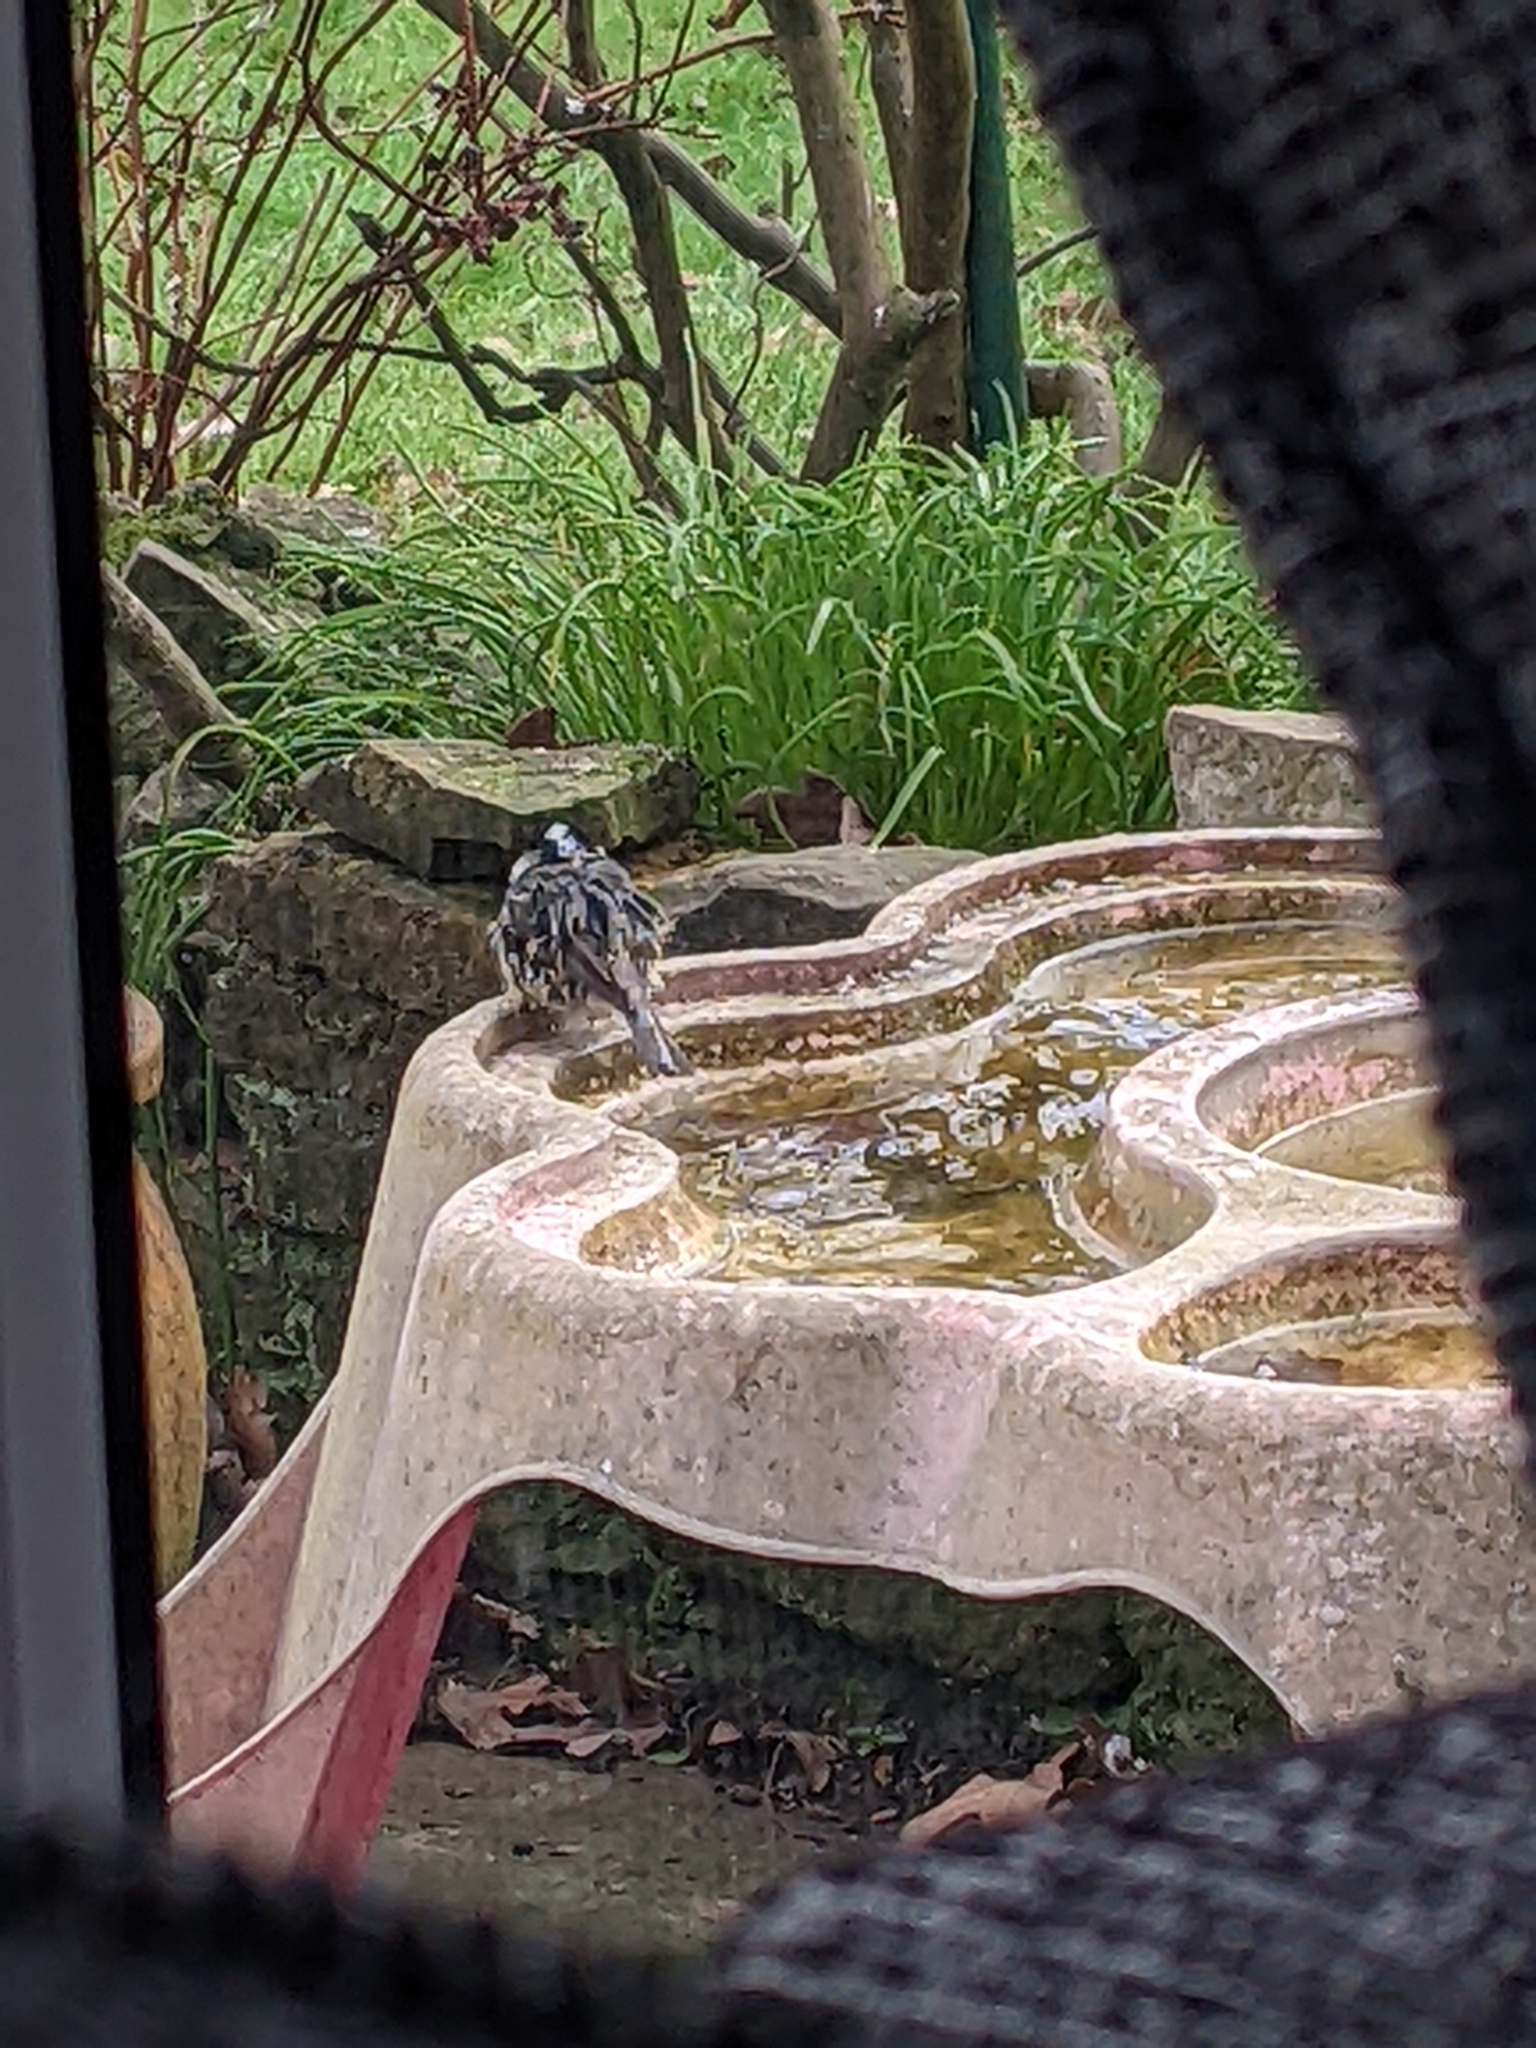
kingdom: Animalia
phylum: Chordata
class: Aves
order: Passeriformes
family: Paridae
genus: Periparus
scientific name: Periparus ater
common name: Coal tit
